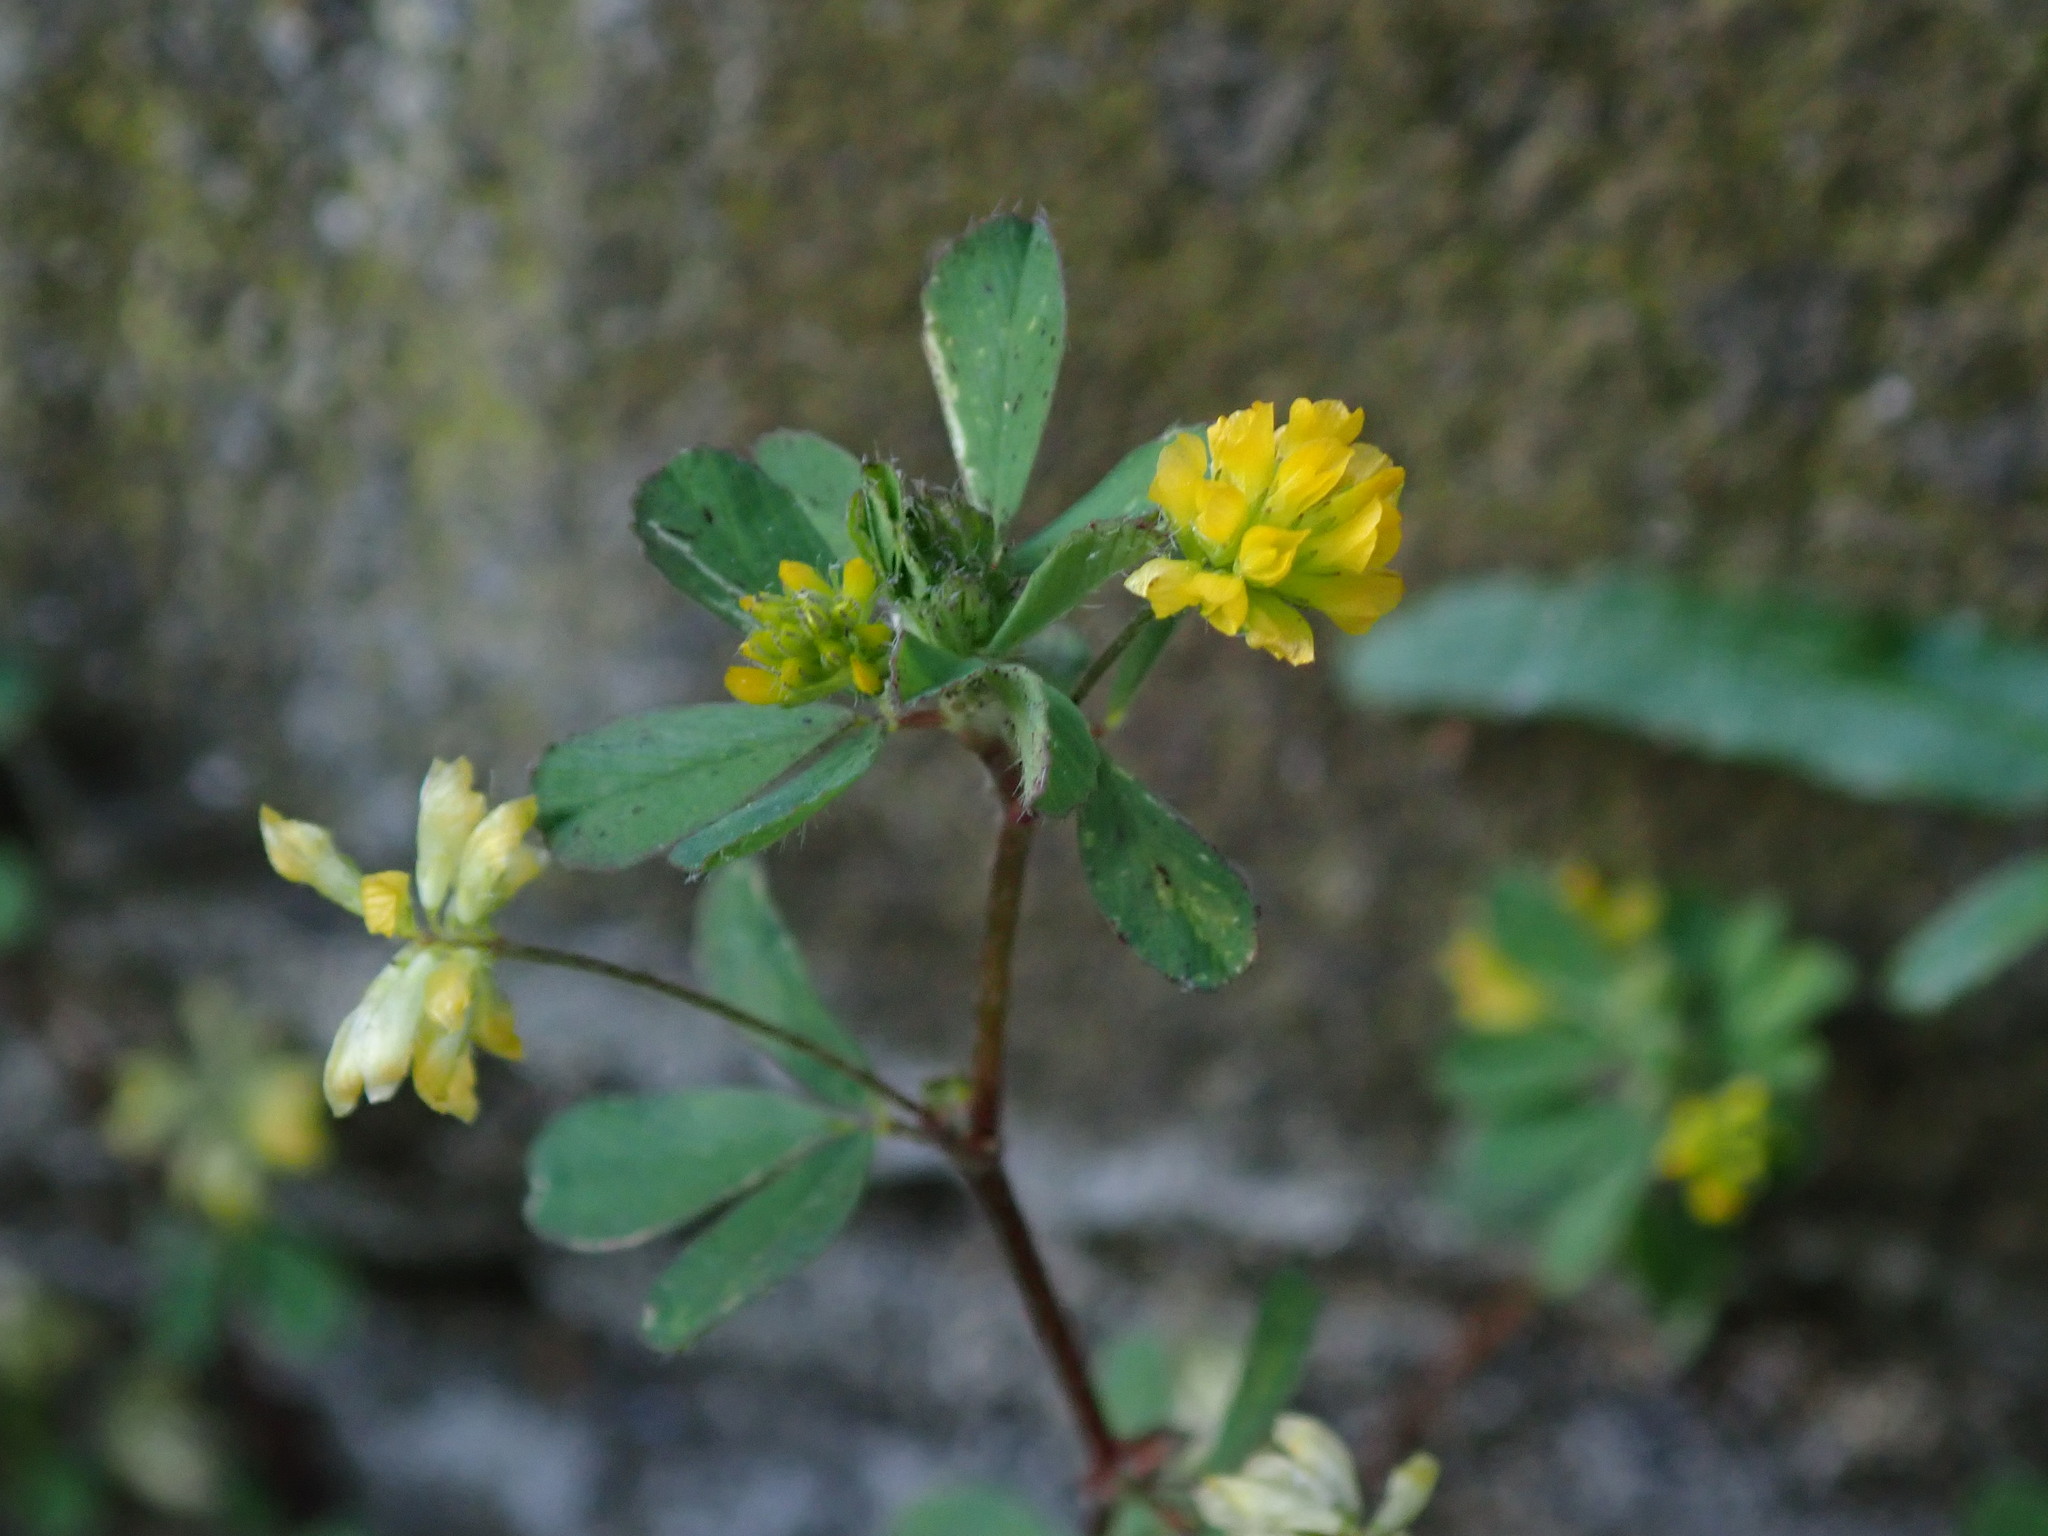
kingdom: Plantae
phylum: Tracheophyta
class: Magnoliopsida
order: Fabales
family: Fabaceae
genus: Trifolium
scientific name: Trifolium dubium
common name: Suckling clover
